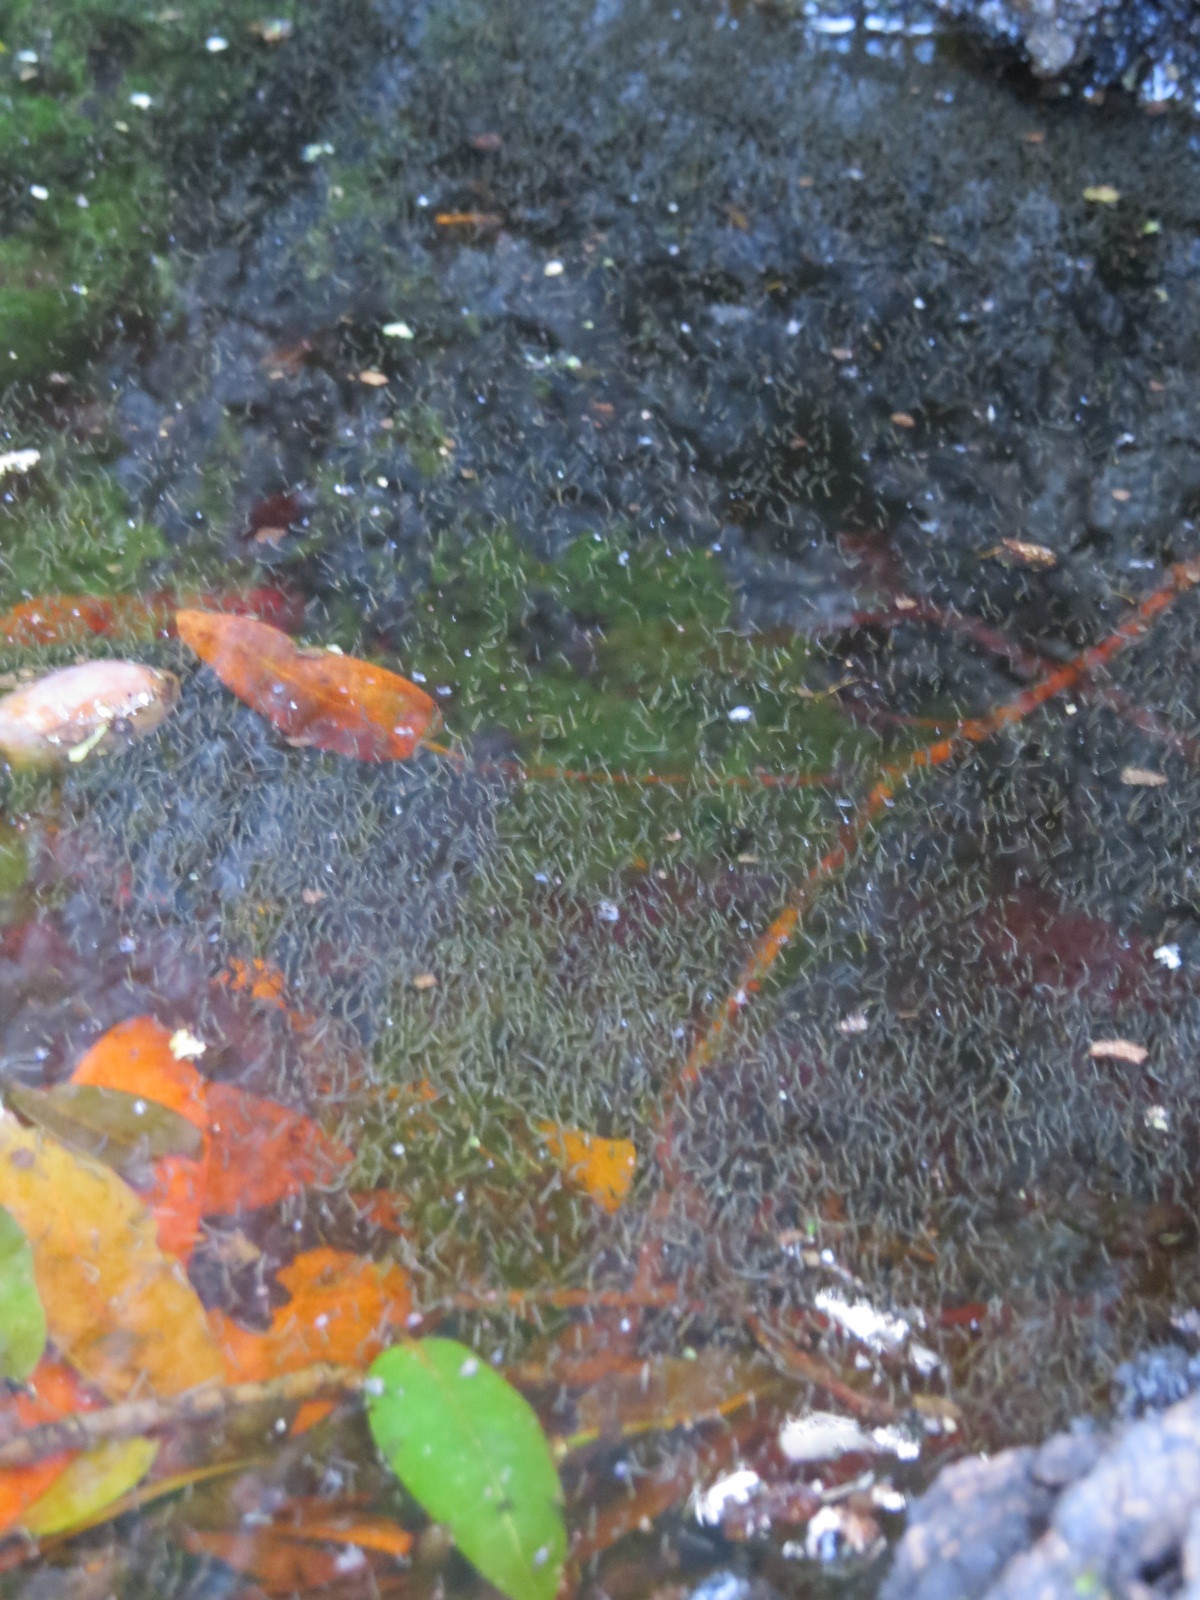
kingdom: Animalia
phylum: Arthropoda
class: Insecta
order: Diptera
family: Culicidae
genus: Aedes
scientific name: Aedes sierrensis
